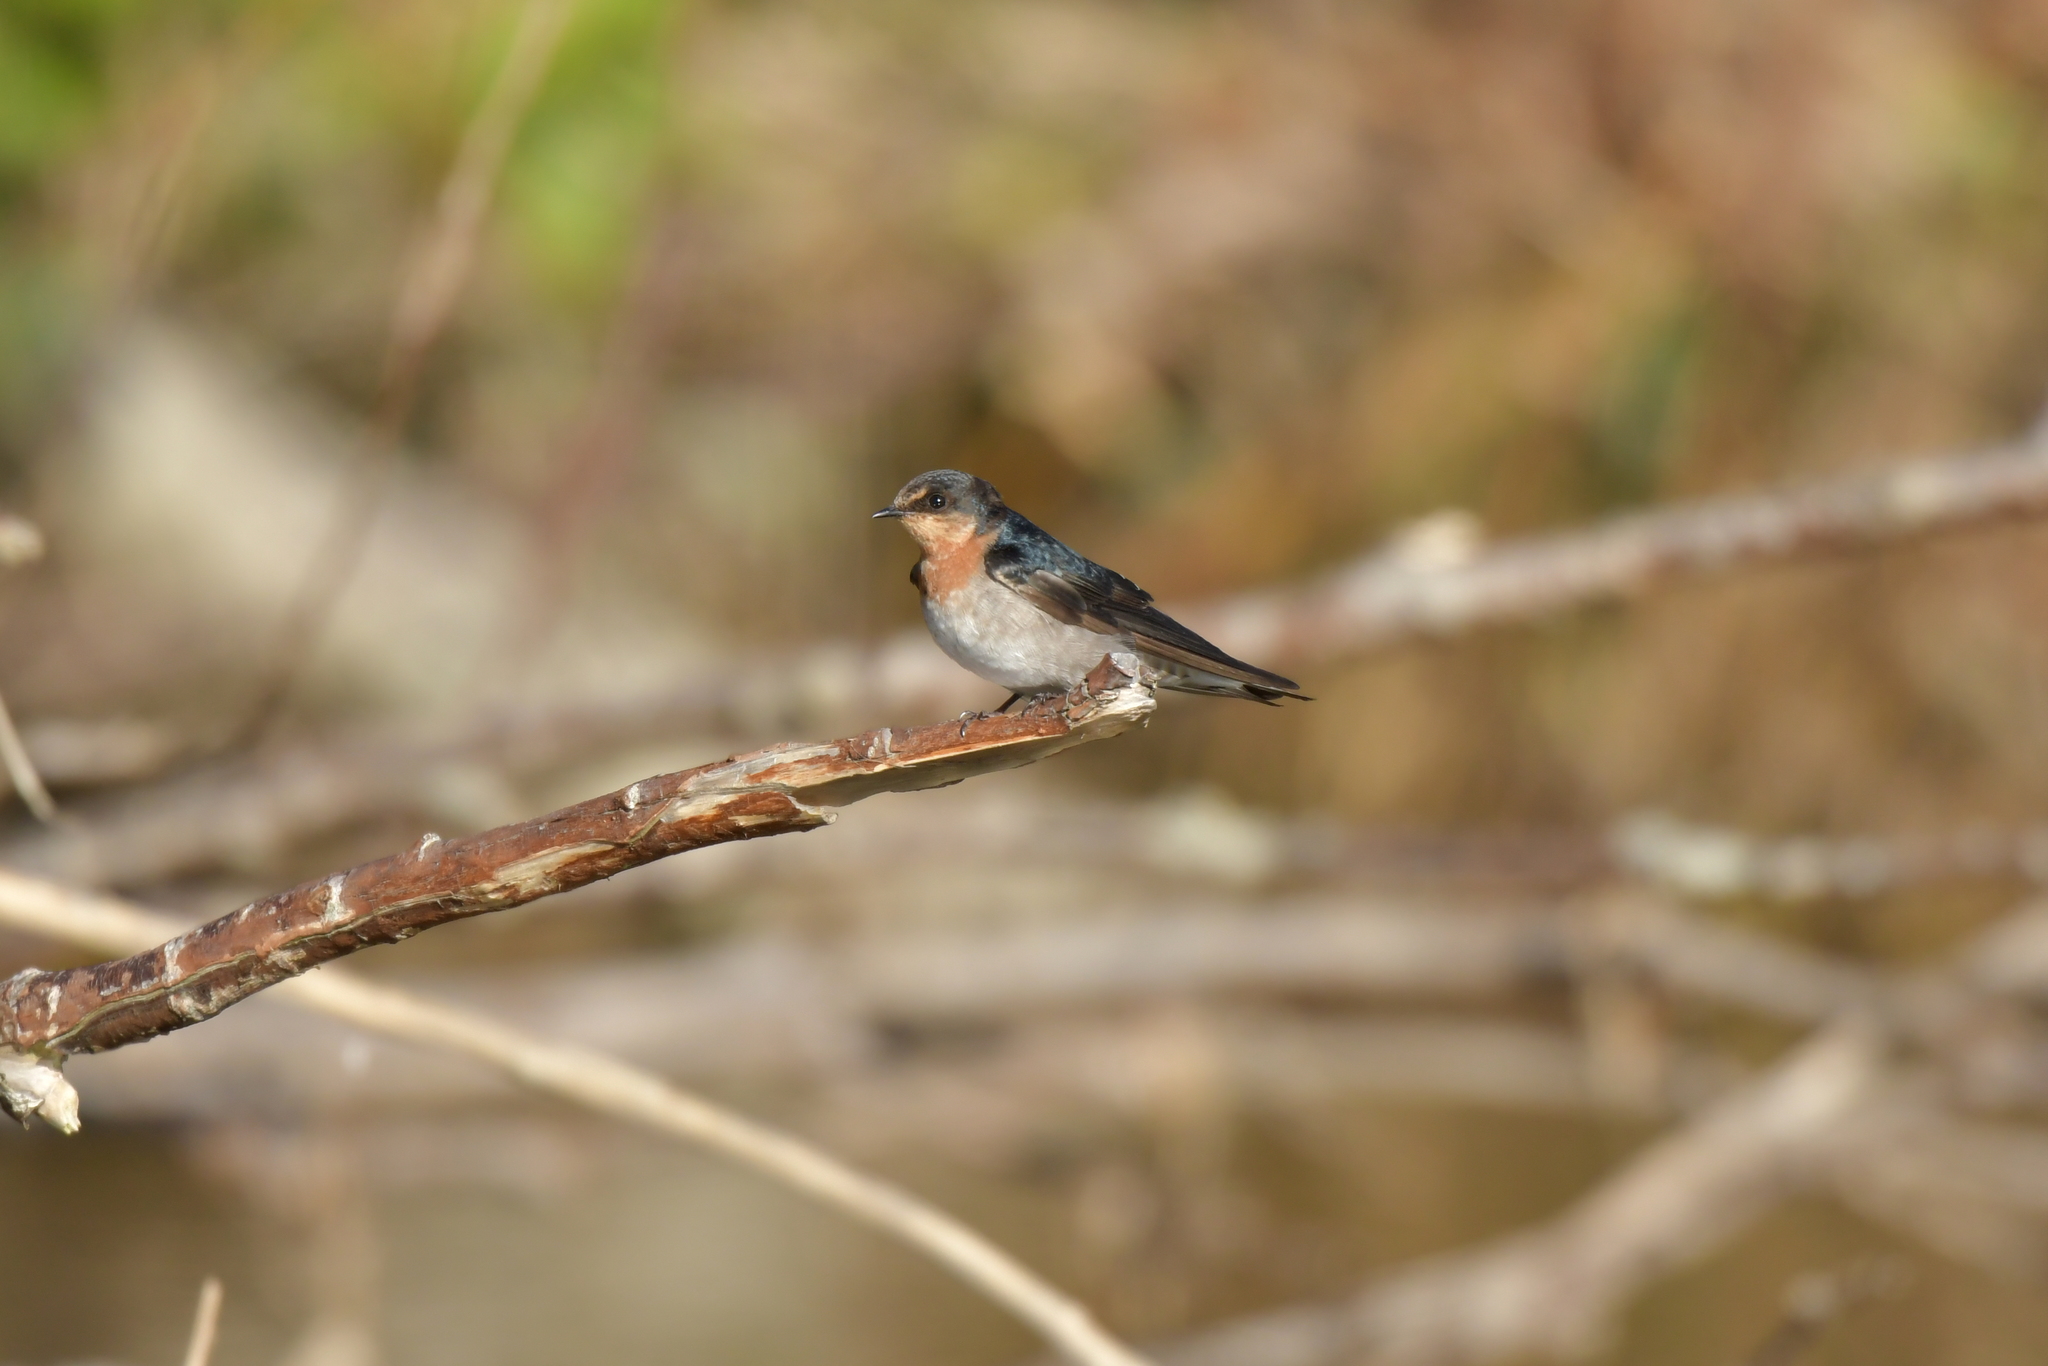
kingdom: Animalia
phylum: Chordata
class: Aves
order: Passeriformes
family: Hirundinidae
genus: Hirundo
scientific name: Hirundo neoxena
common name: Welcome swallow
